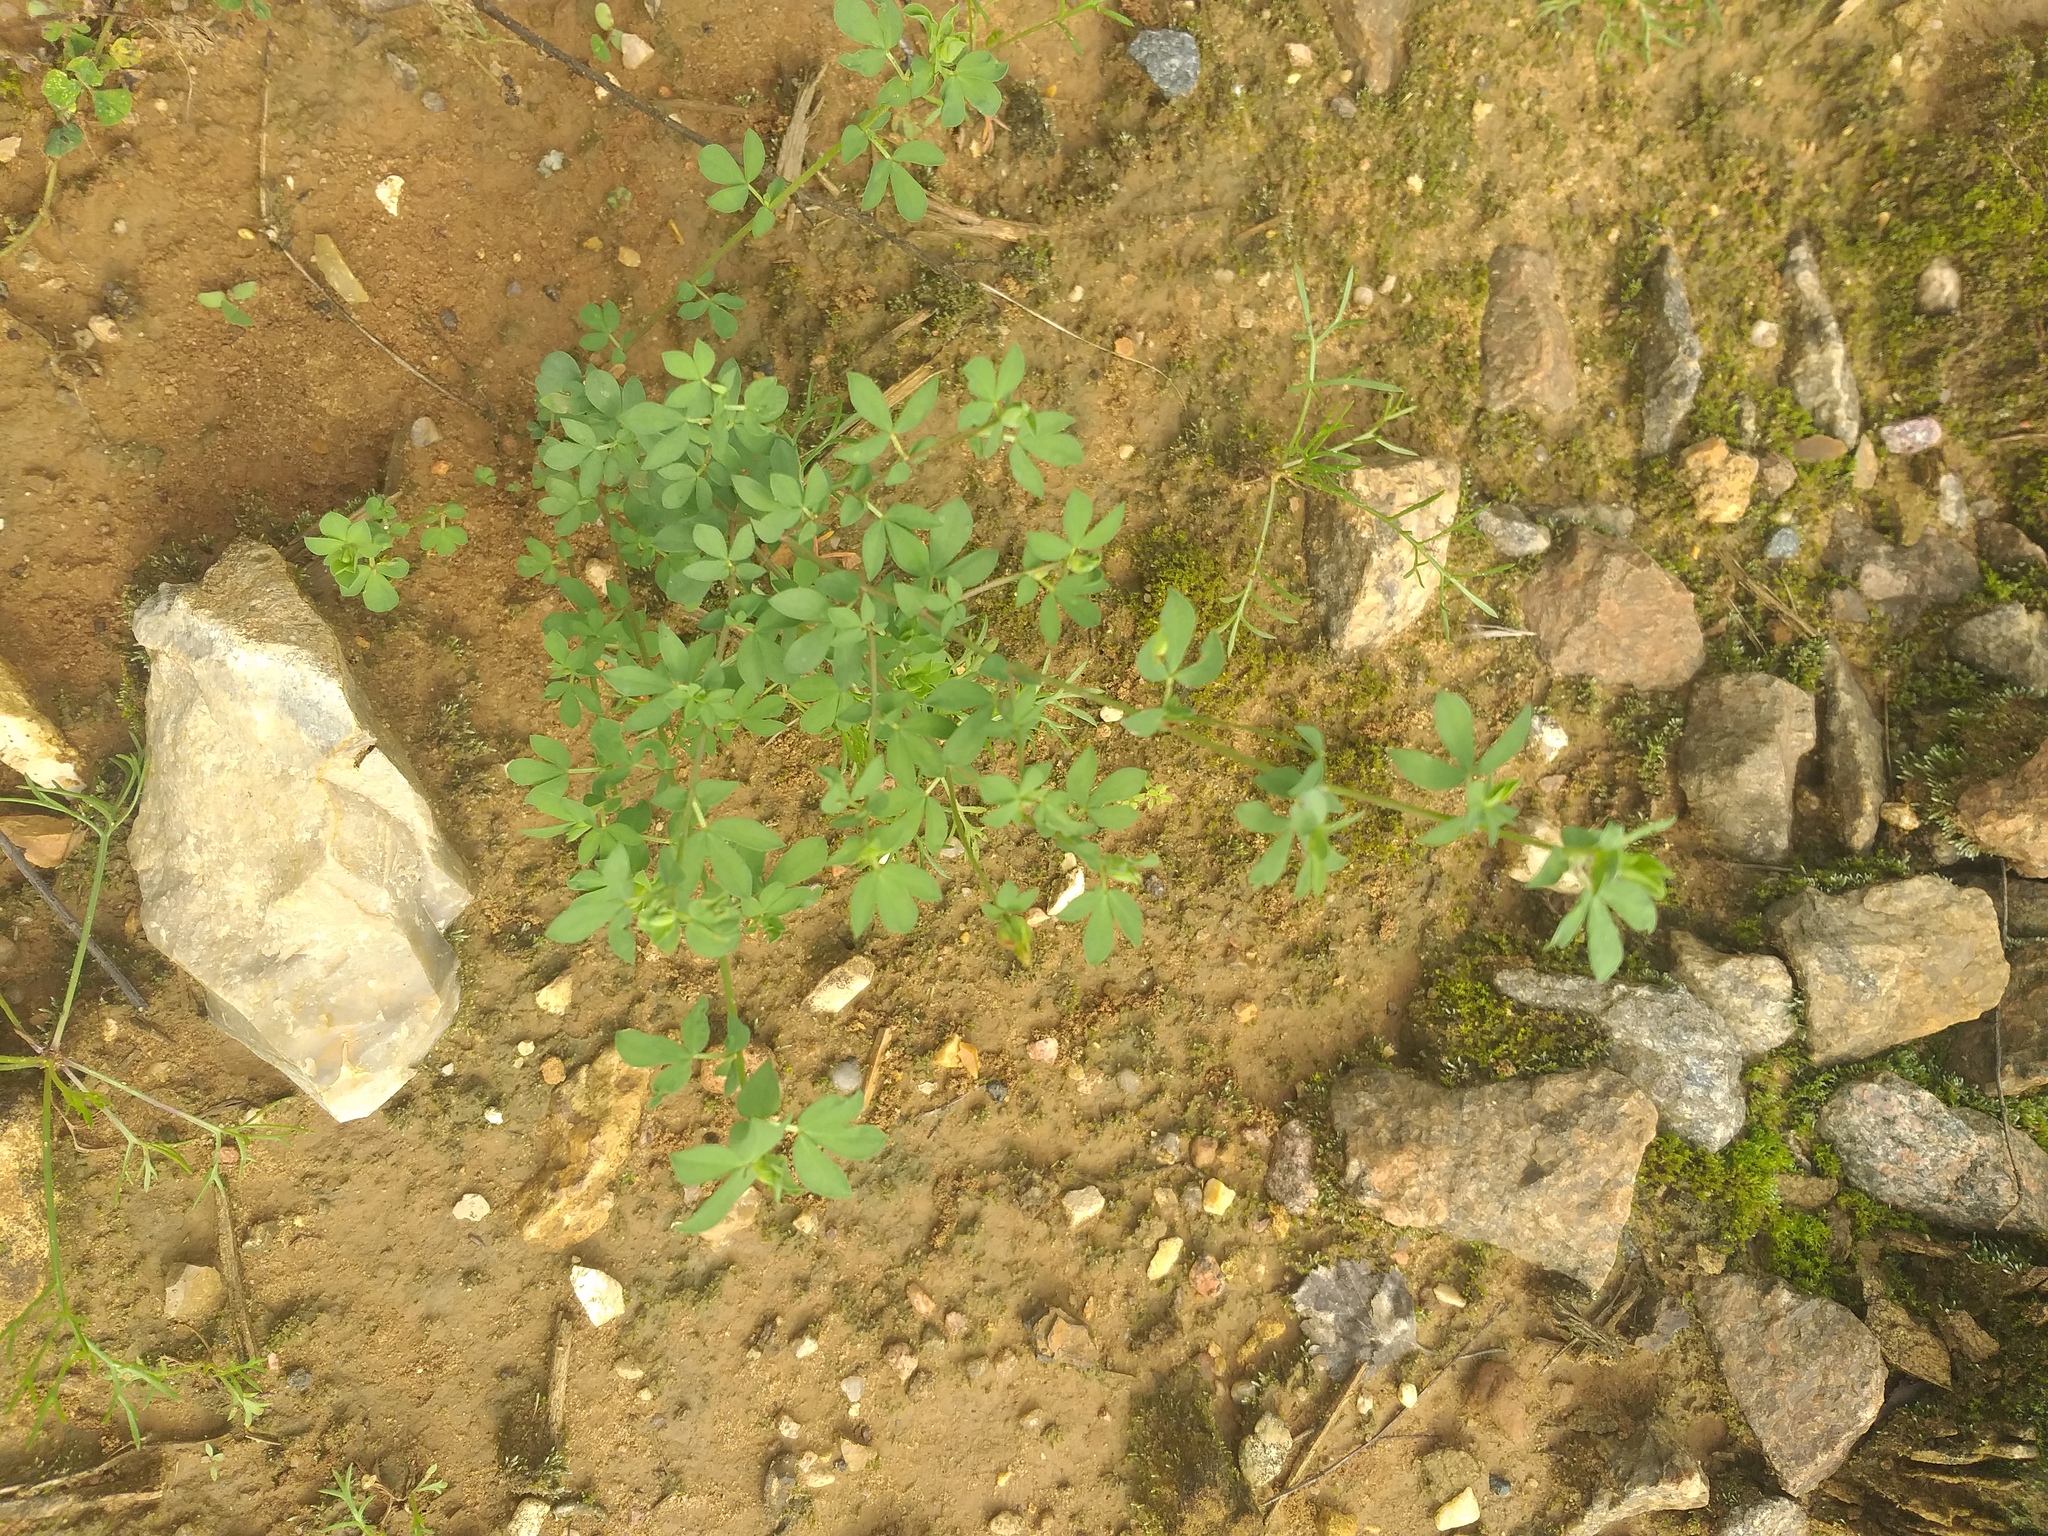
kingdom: Plantae
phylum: Tracheophyta
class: Magnoliopsida
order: Fabales
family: Fabaceae
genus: Lotus
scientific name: Lotus corniculatus
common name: Common bird's-foot-trefoil
